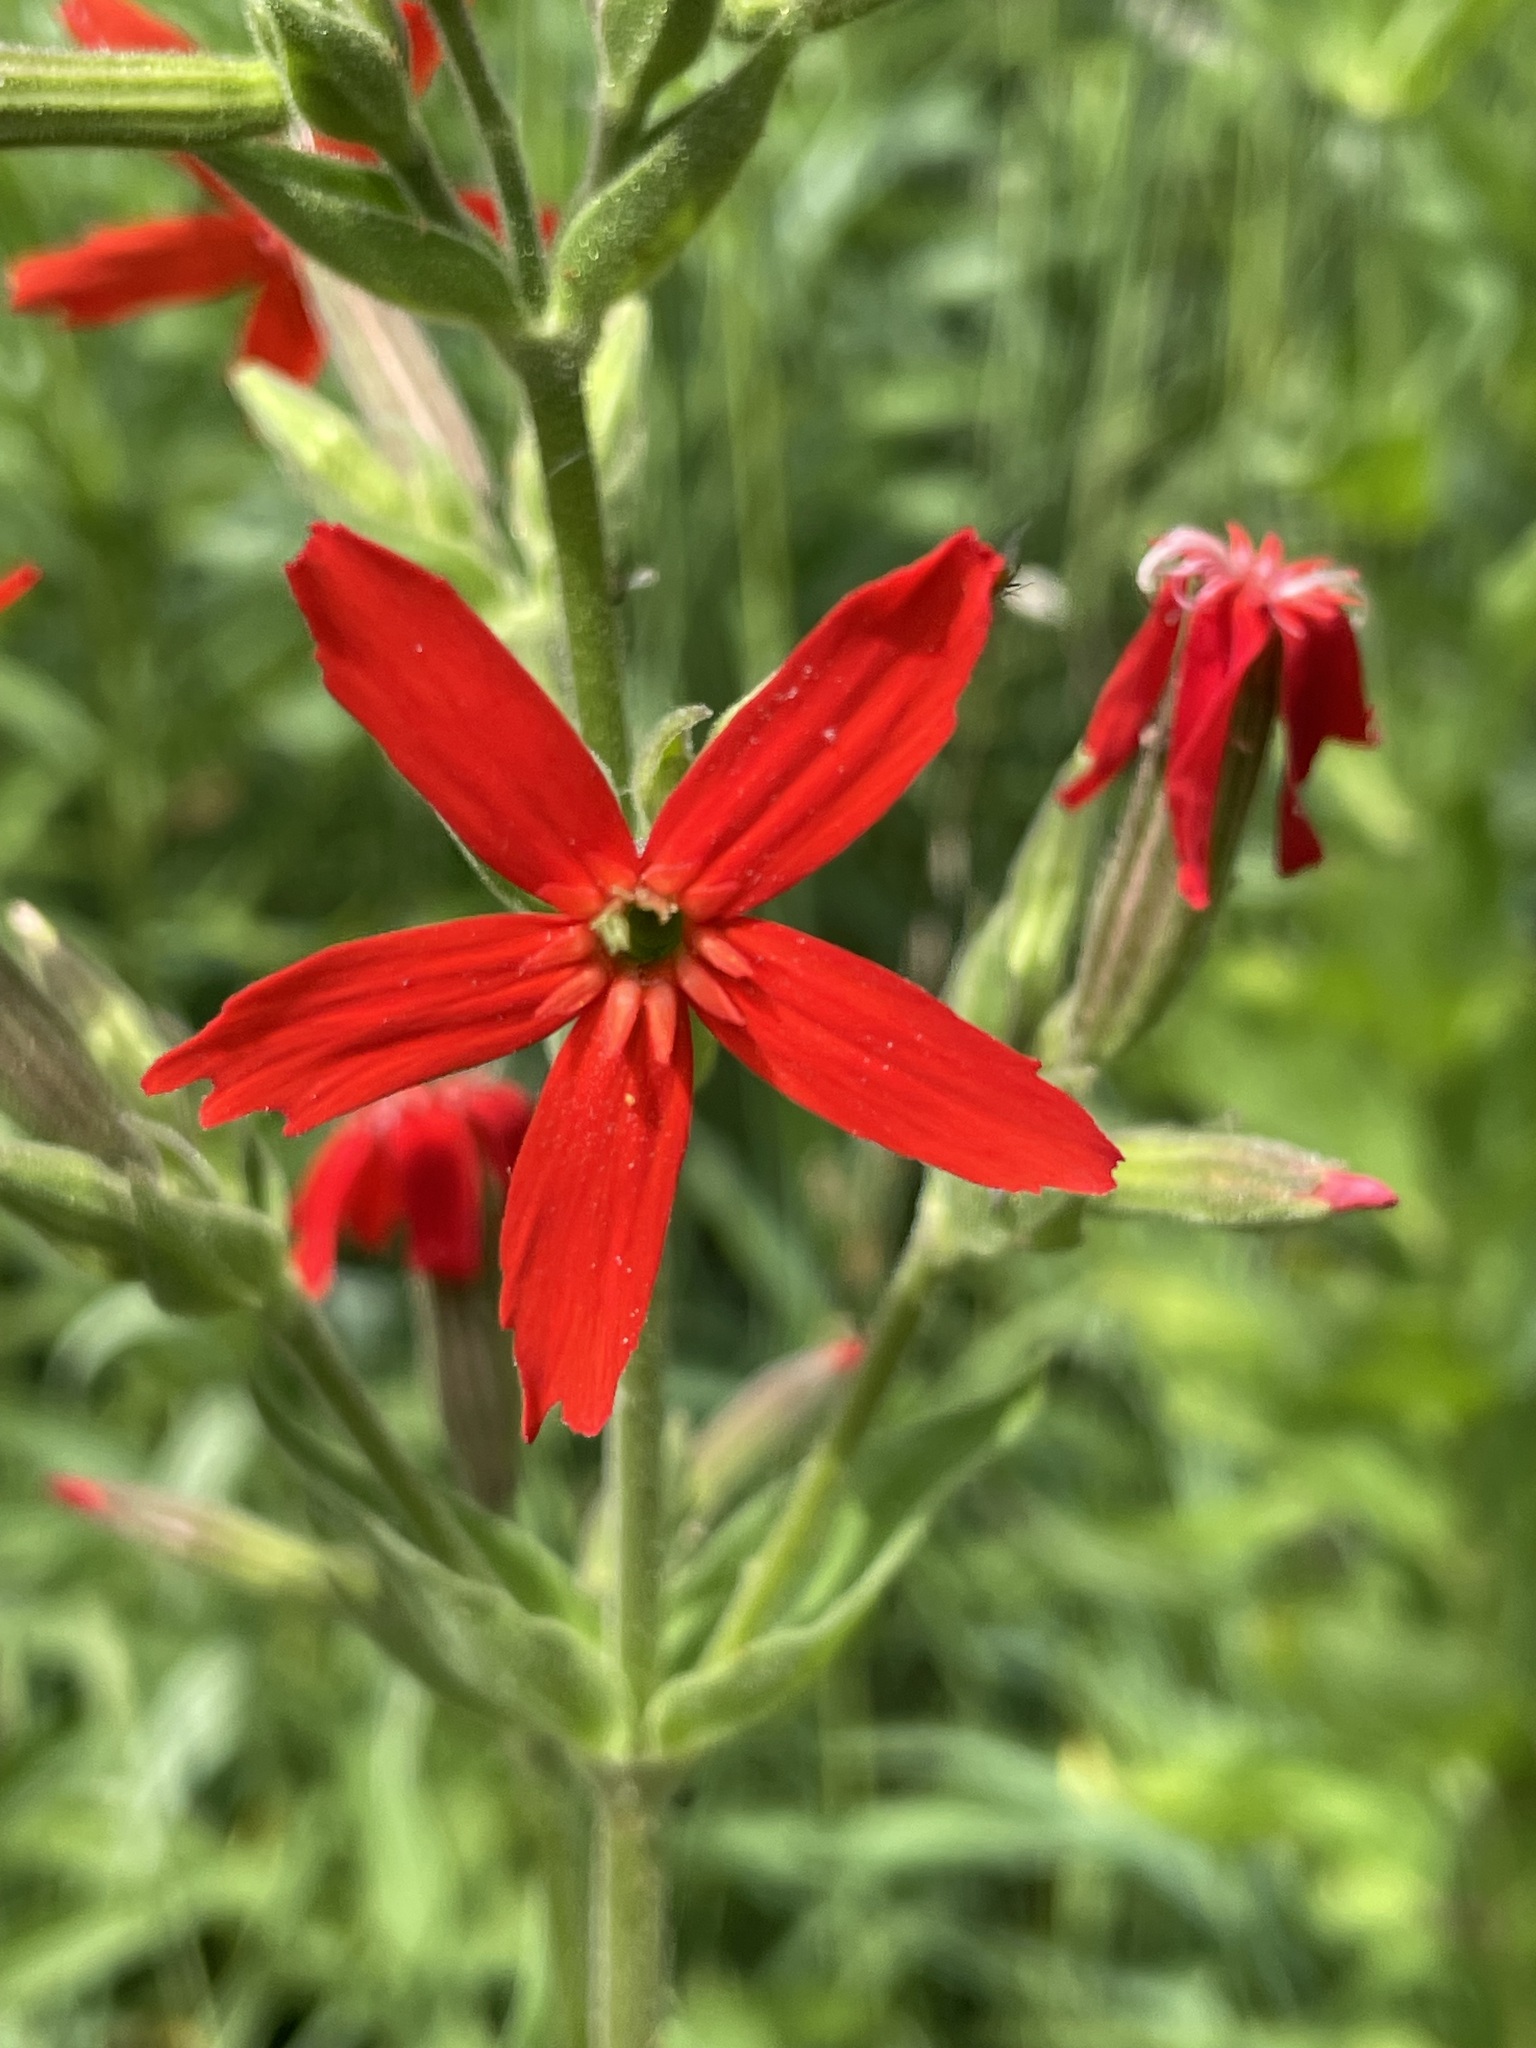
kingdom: Plantae
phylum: Tracheophyta
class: Magnoliopsida
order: Caryophyllales
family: Caryophyllaceae
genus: Silene
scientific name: Silene regia
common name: Royal catchfly
